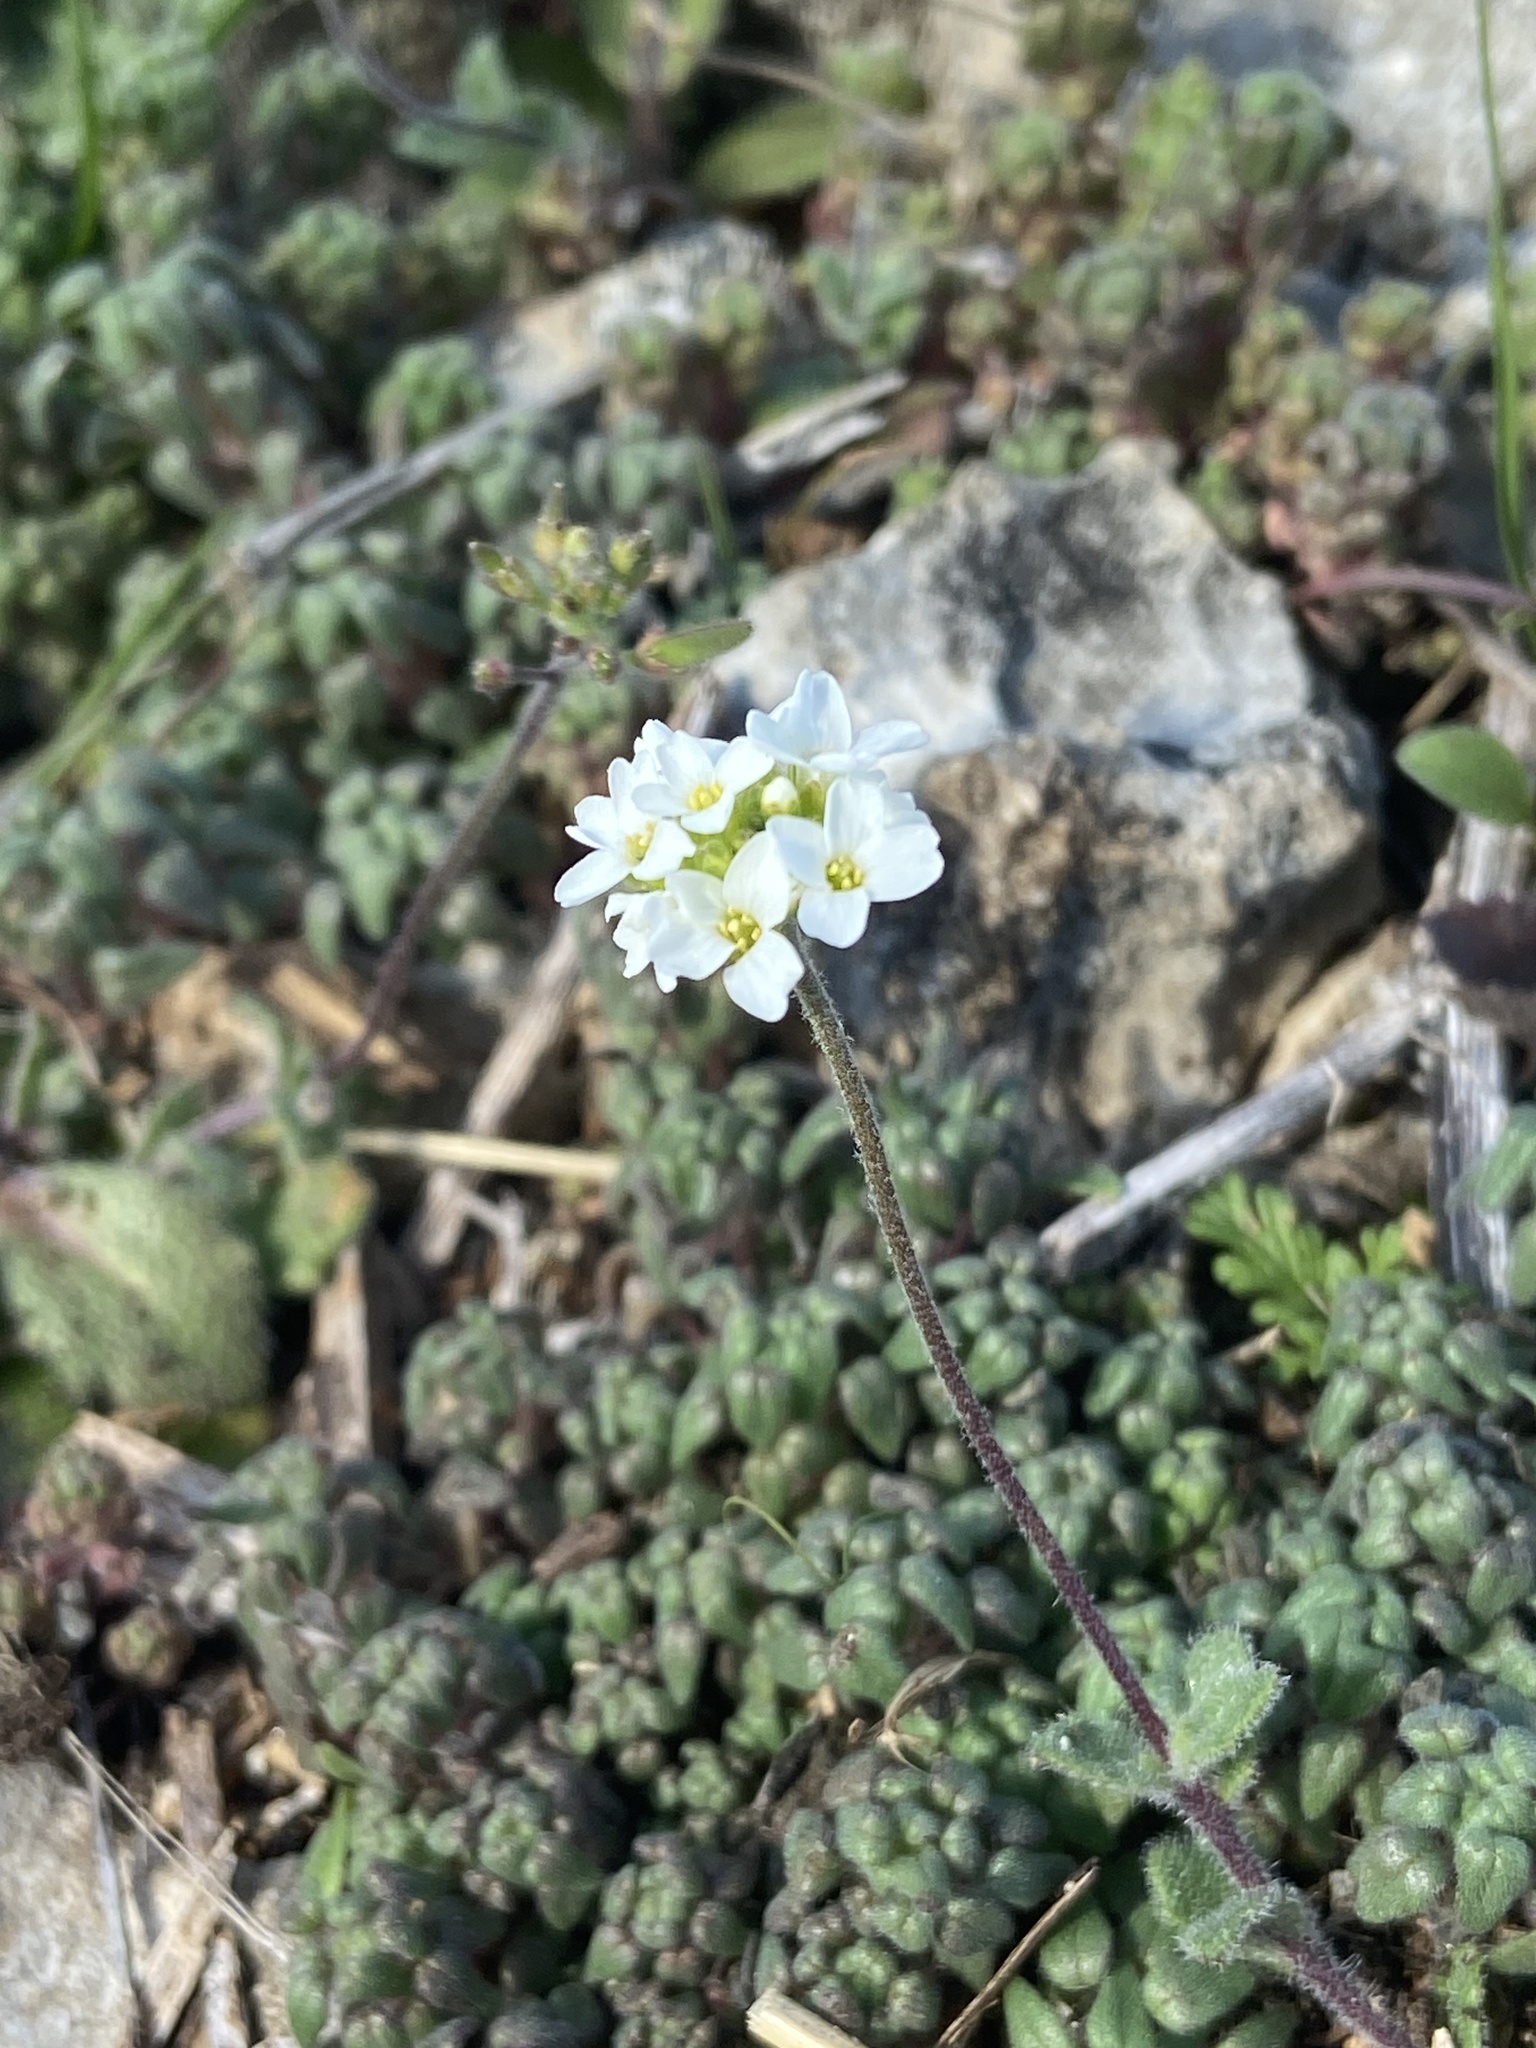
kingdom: Plantae
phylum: Tracheophyta
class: Magnoliopsida
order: Brassicales
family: Brassicaceae
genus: Tomostima
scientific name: Tomostima cuneifolia
